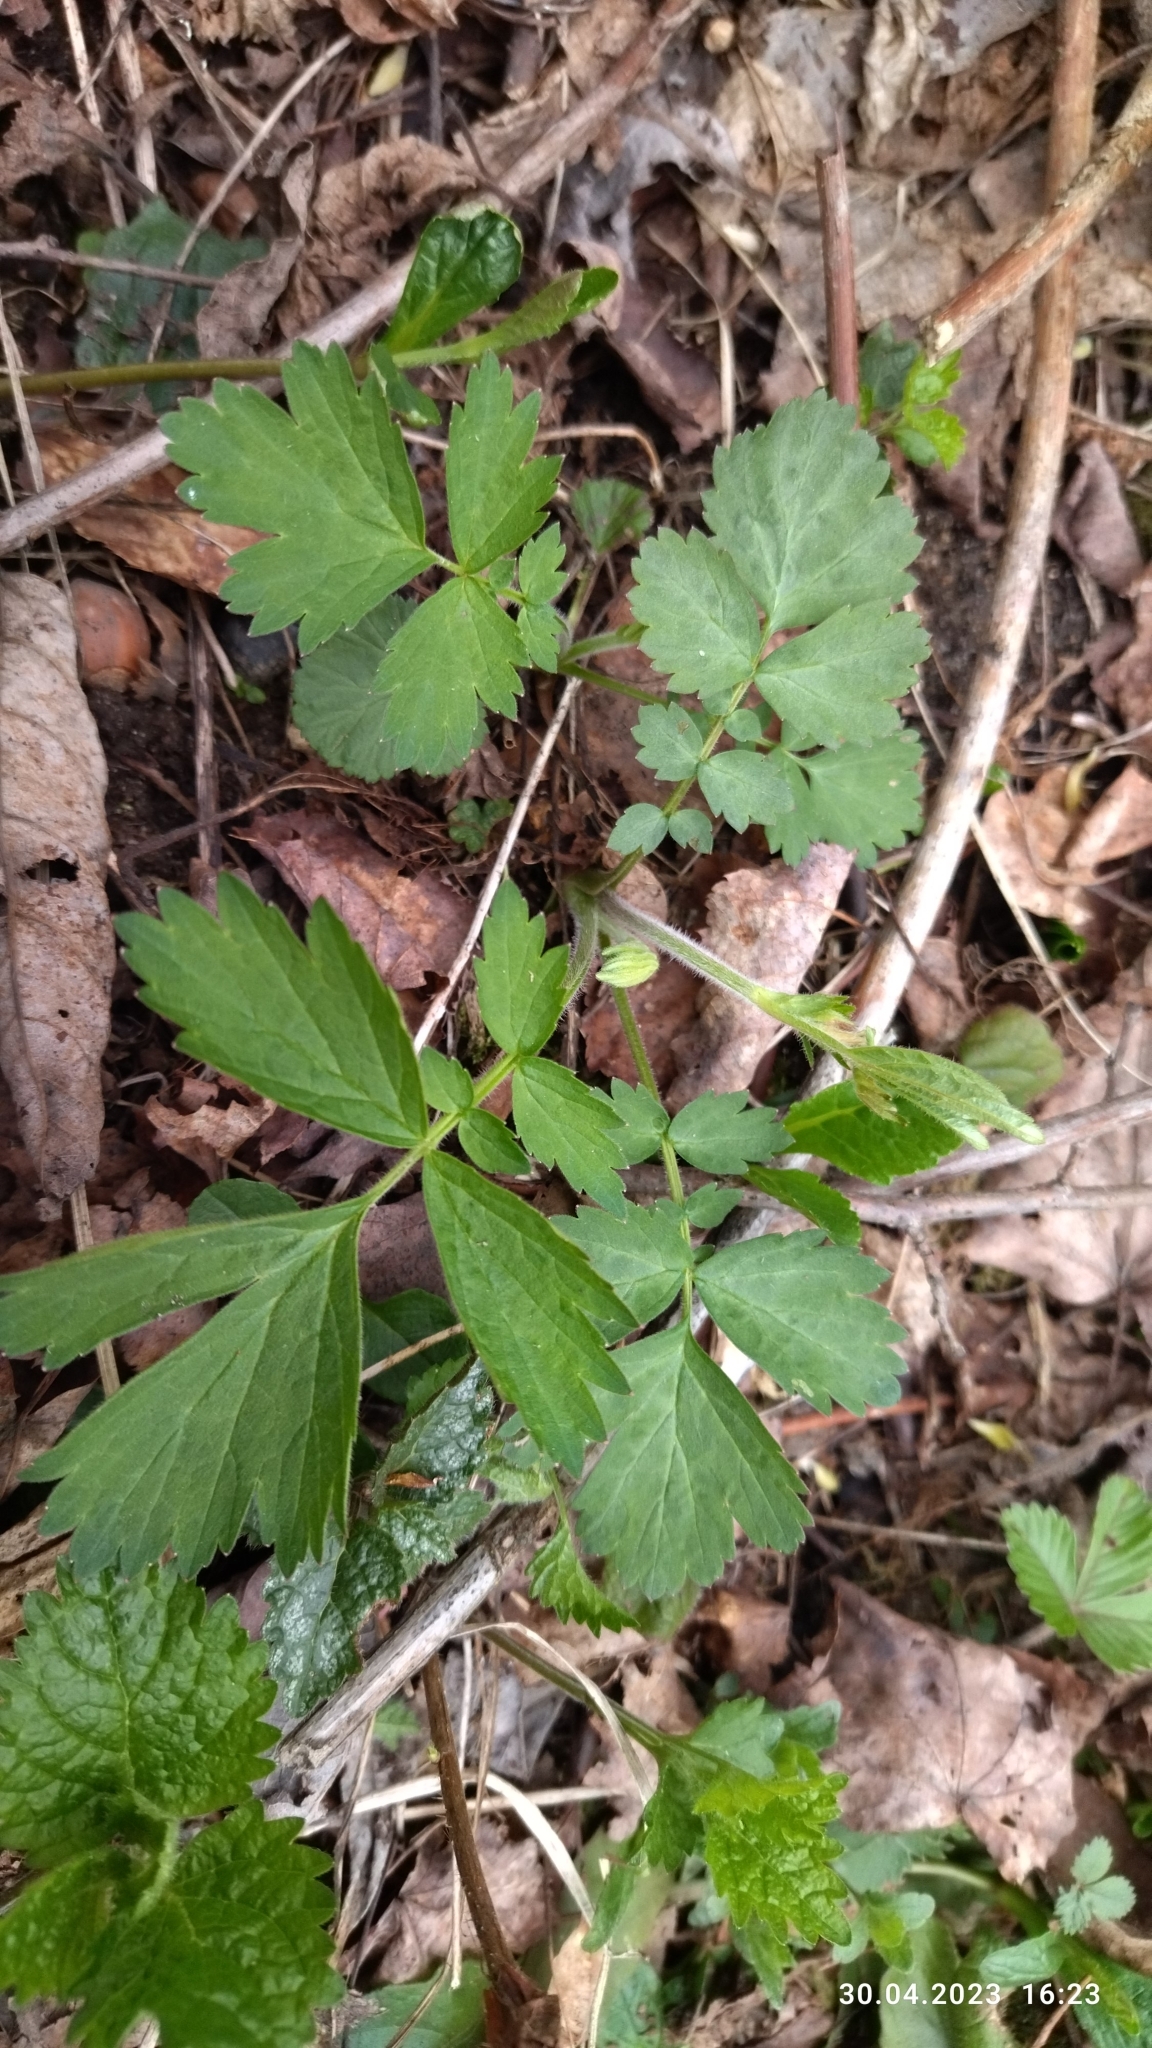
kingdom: Plantae
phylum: Tracheophyta
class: Magnoliopsida
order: Rosales
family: Rosaceae
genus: Geum
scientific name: Geum rivale
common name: Water avens
